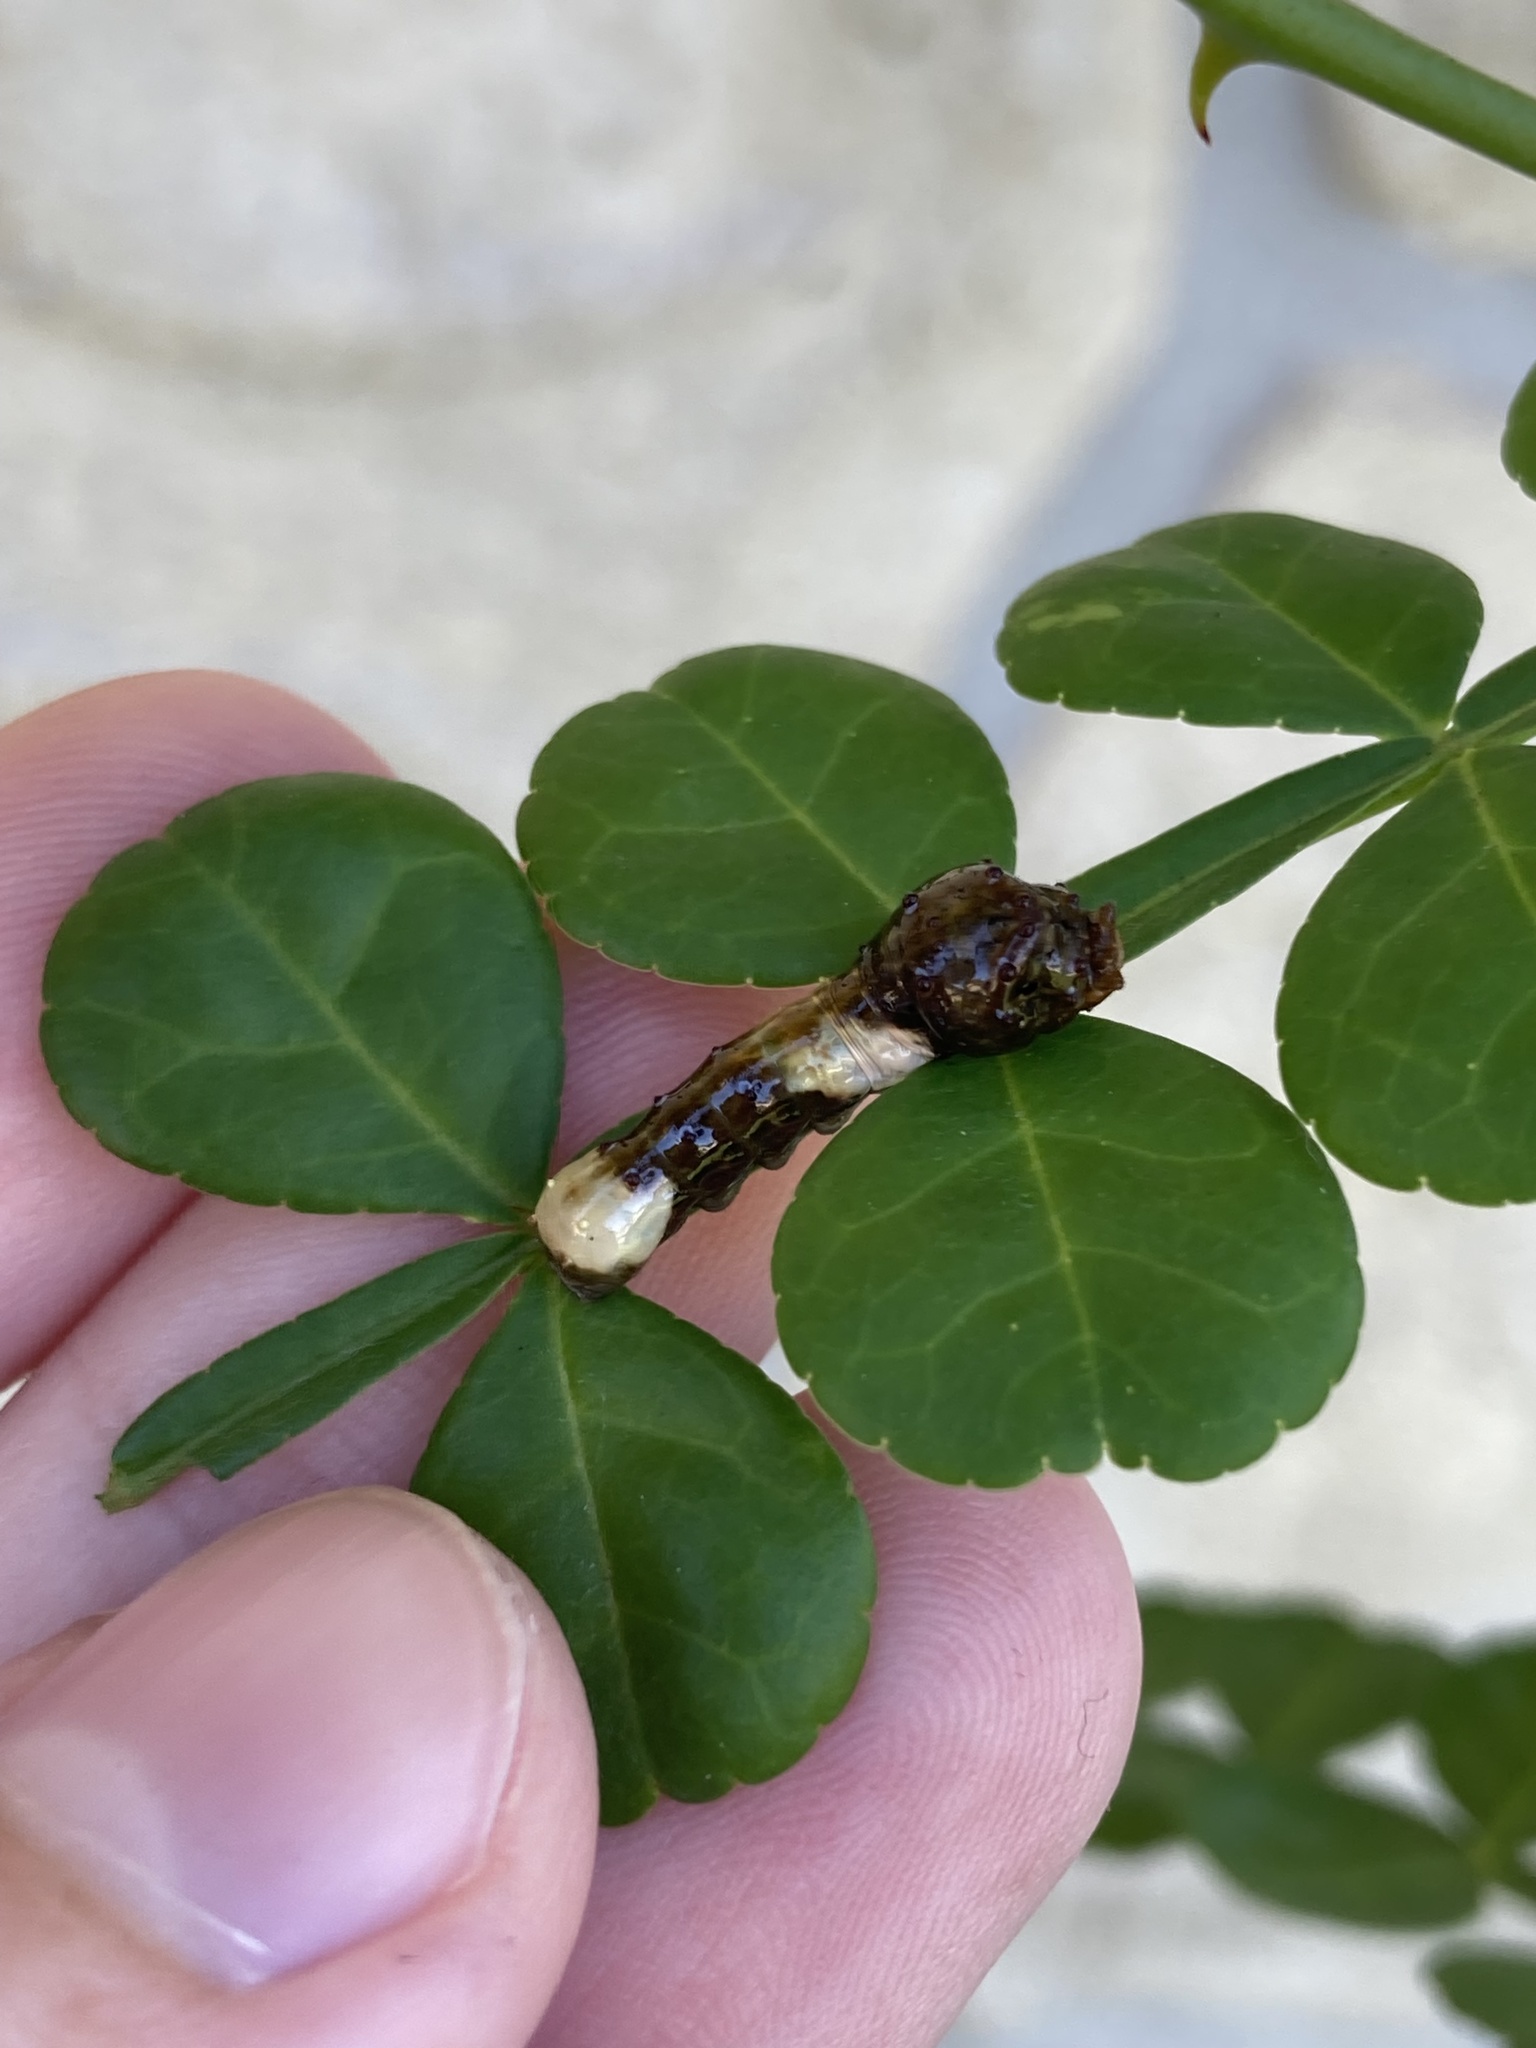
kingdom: Animalia
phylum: Arthropoda
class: Insecta
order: Lepidoptera
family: Papilionidae
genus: Papilio
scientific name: Papilio cresphontes
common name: Giant swallowtail
